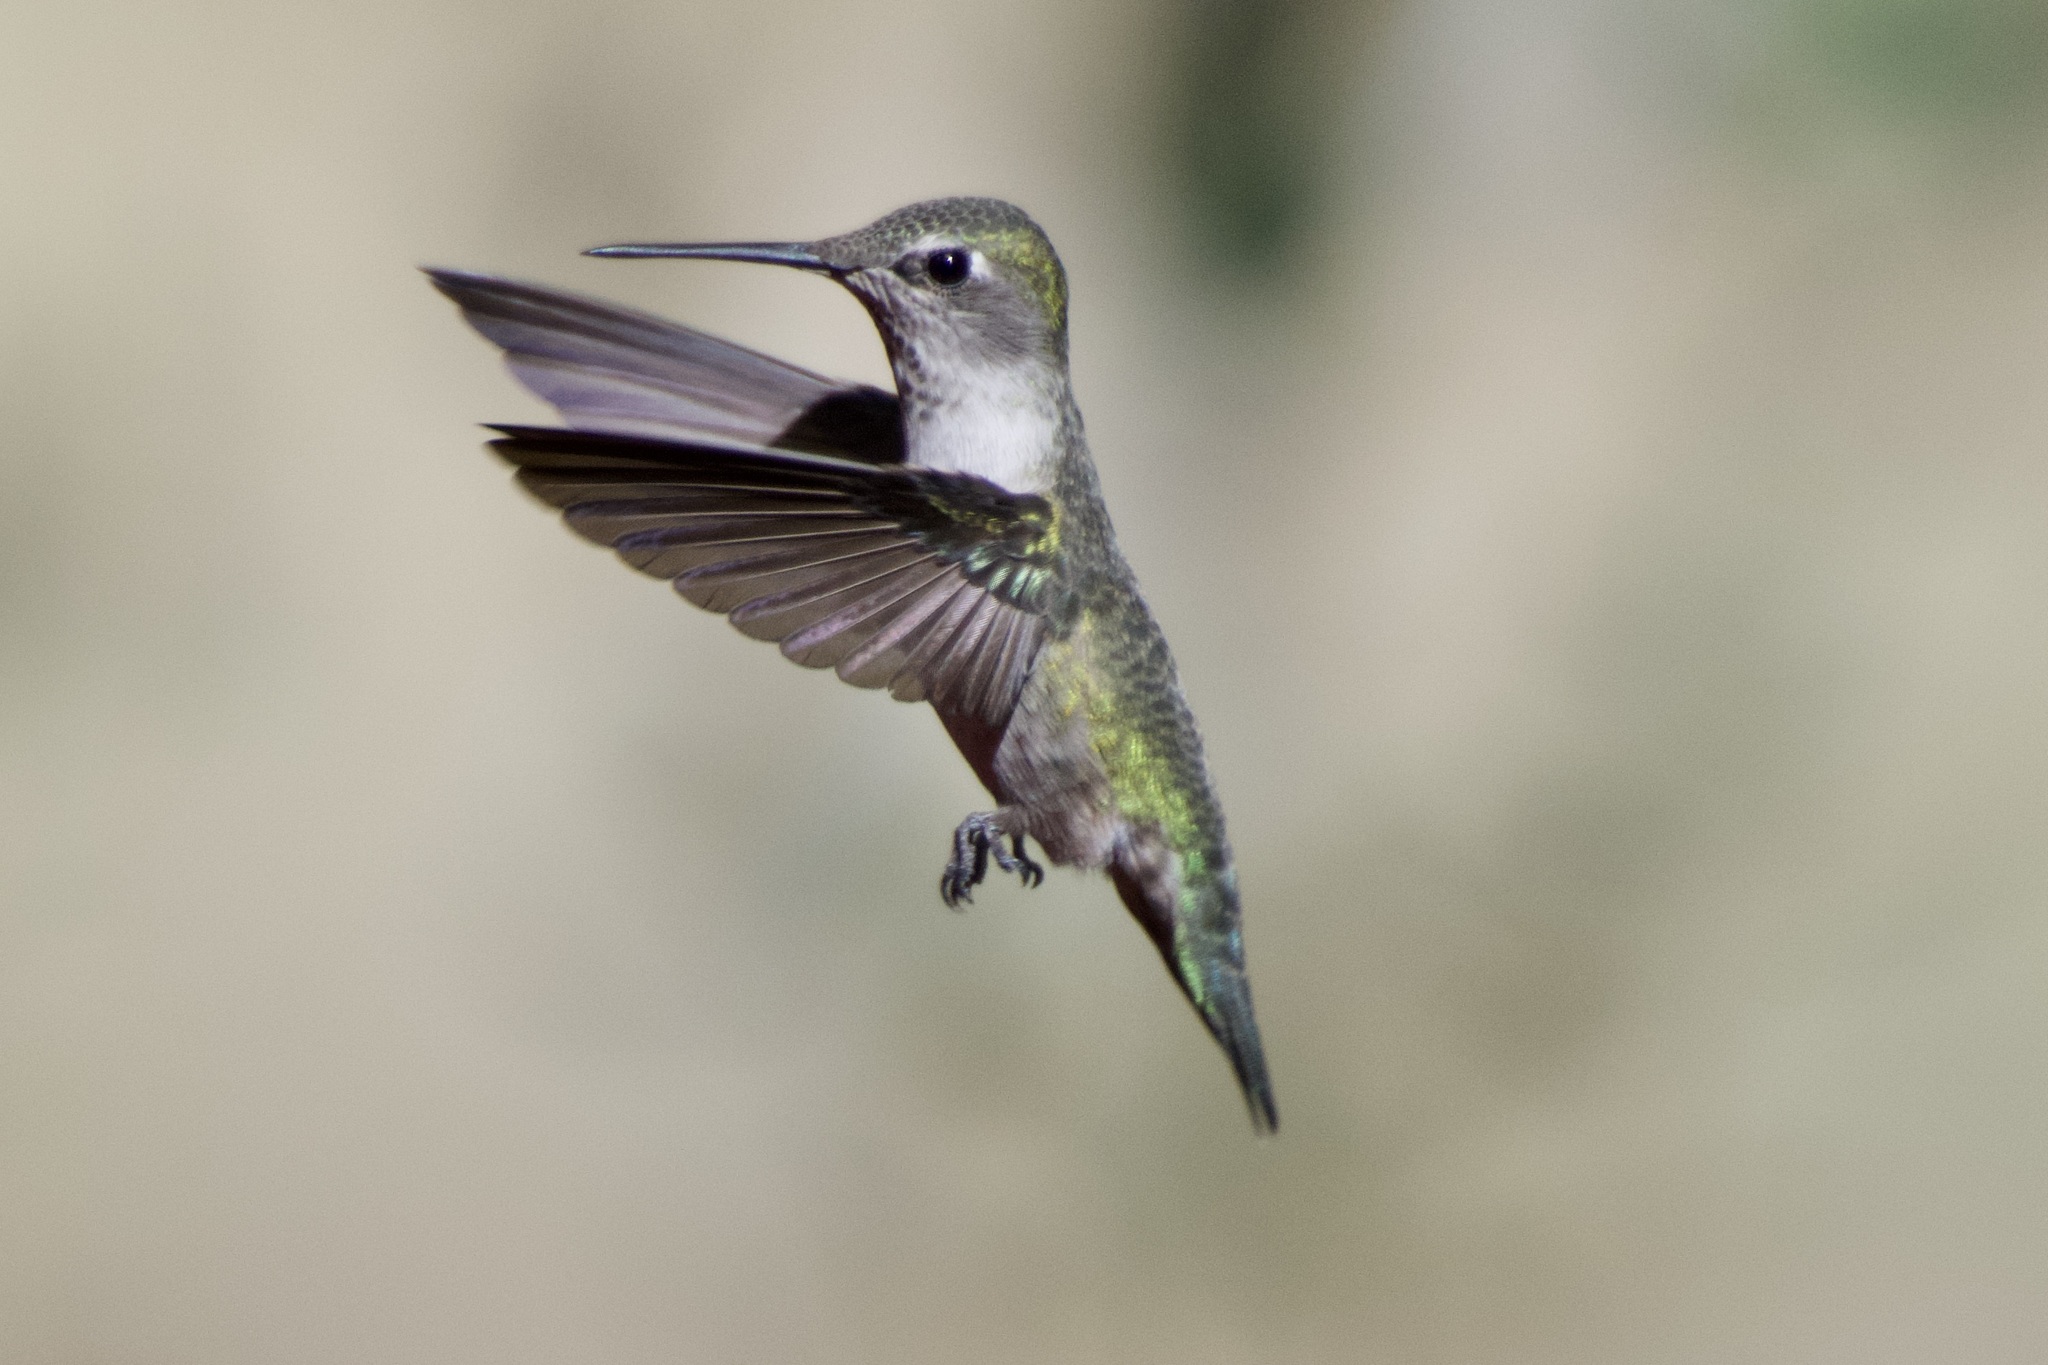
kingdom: Animalia
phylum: Chordata
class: Aves
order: Apodiformes
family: Trochilidae
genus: Calypte
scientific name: Calypte anna
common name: Anna's hummingbird
